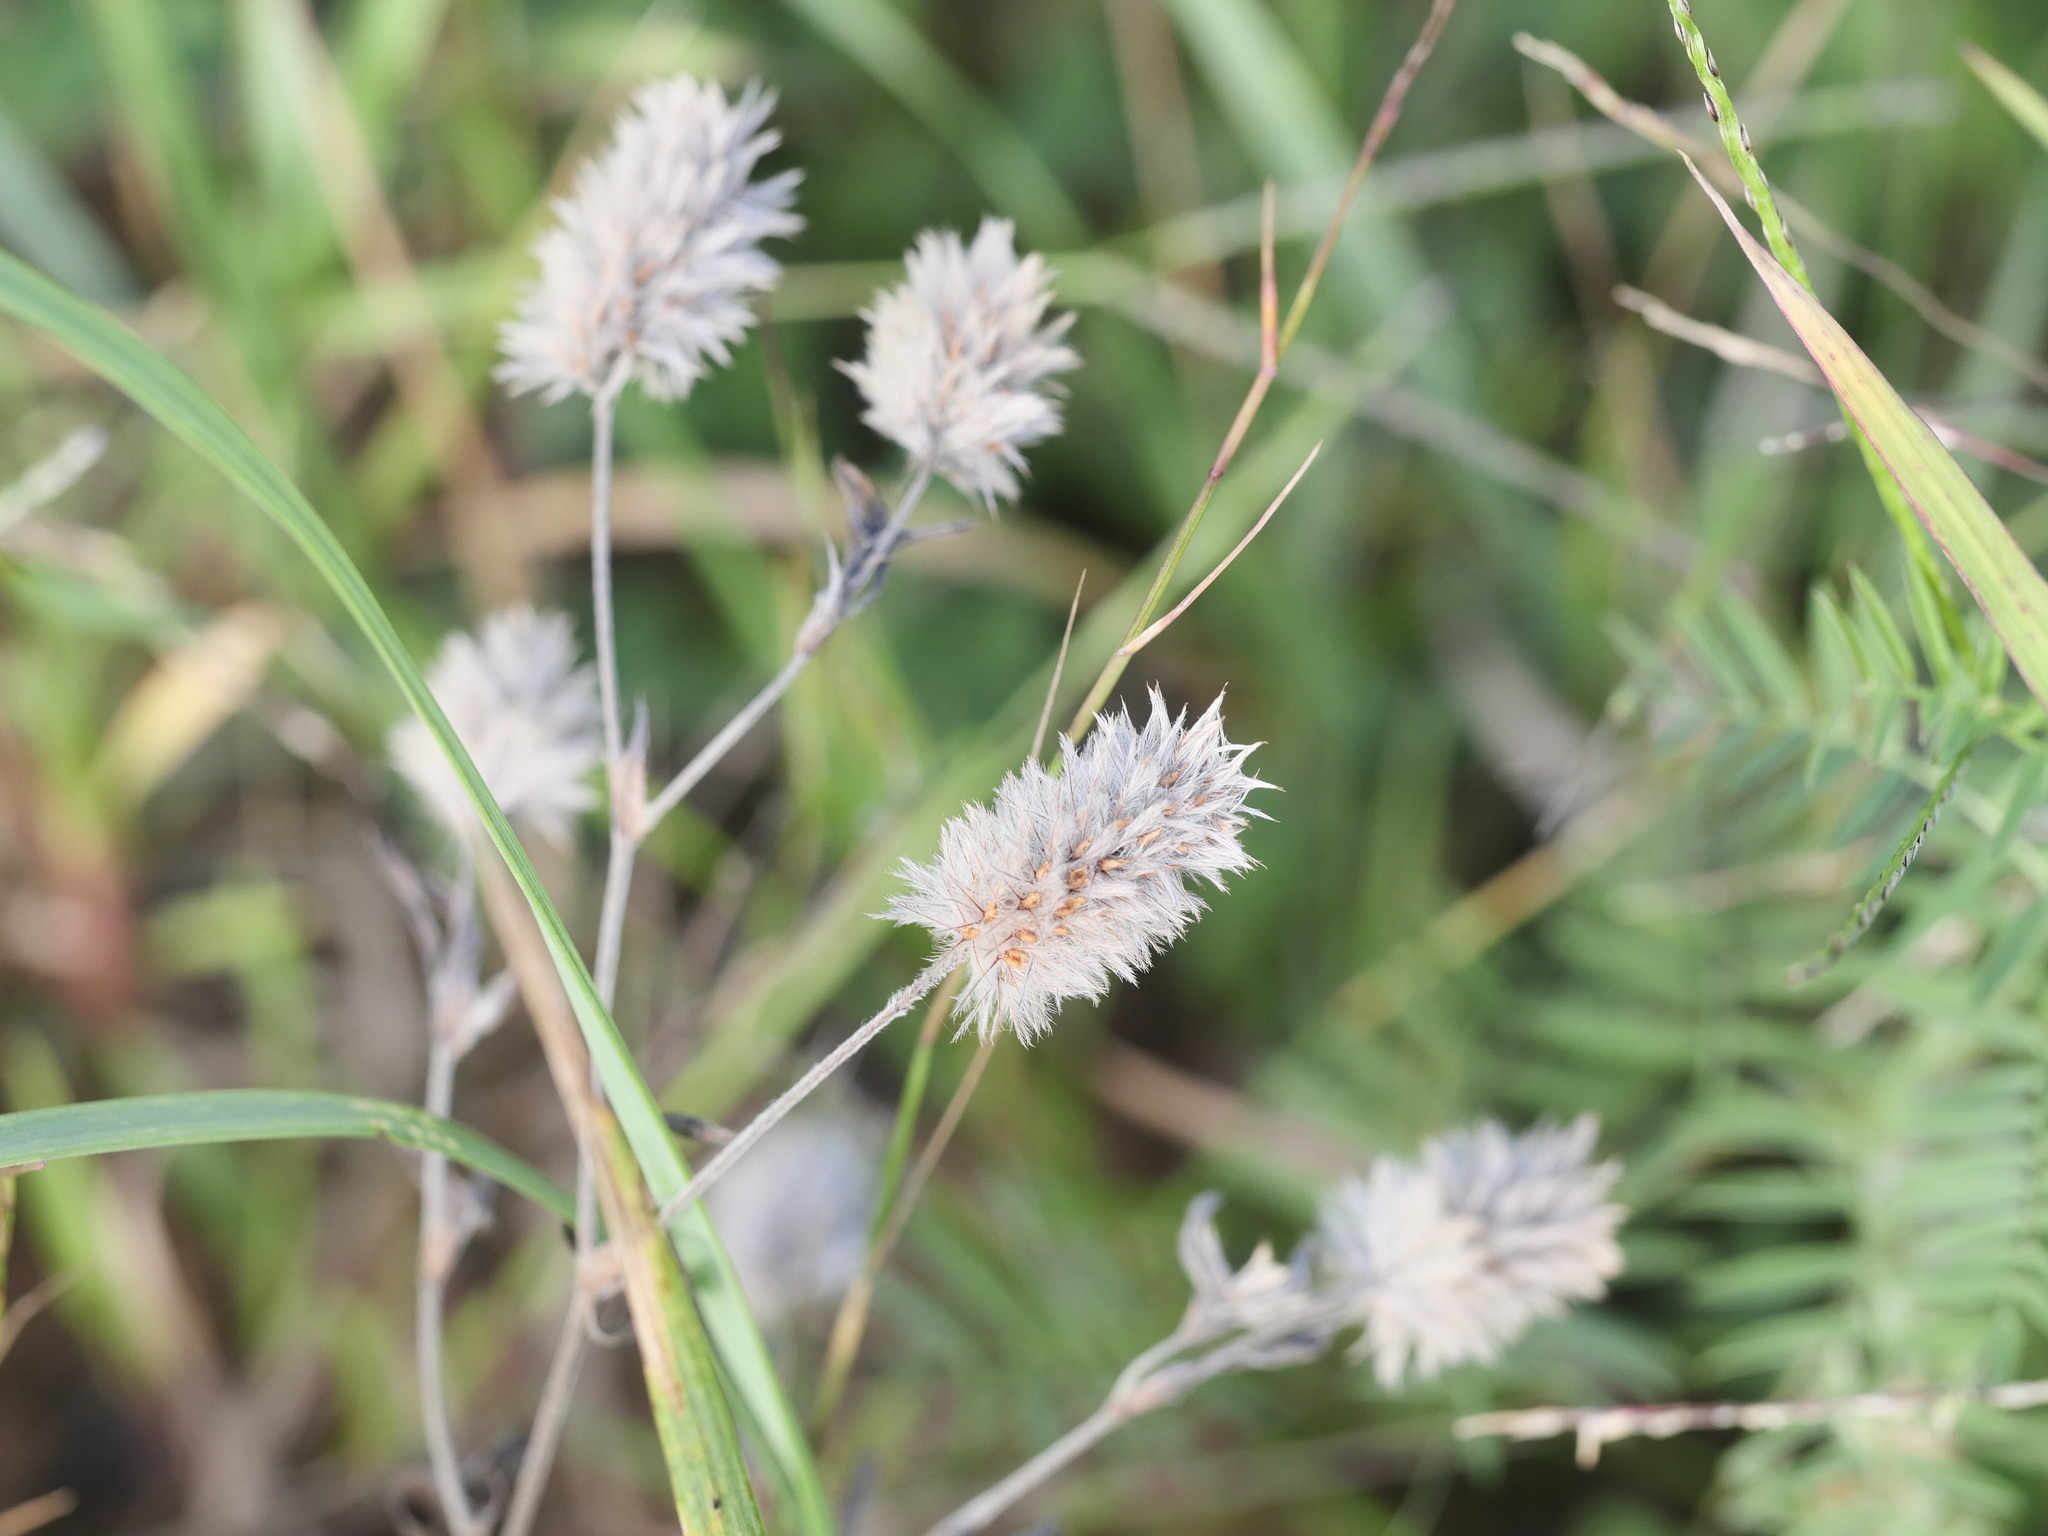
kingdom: Plantae
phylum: Tracheophyta
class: Magnoliopsida
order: Fabales
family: Fabaceae
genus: Trifolium
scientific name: Trifolium arvense
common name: Hare's-foot clover
